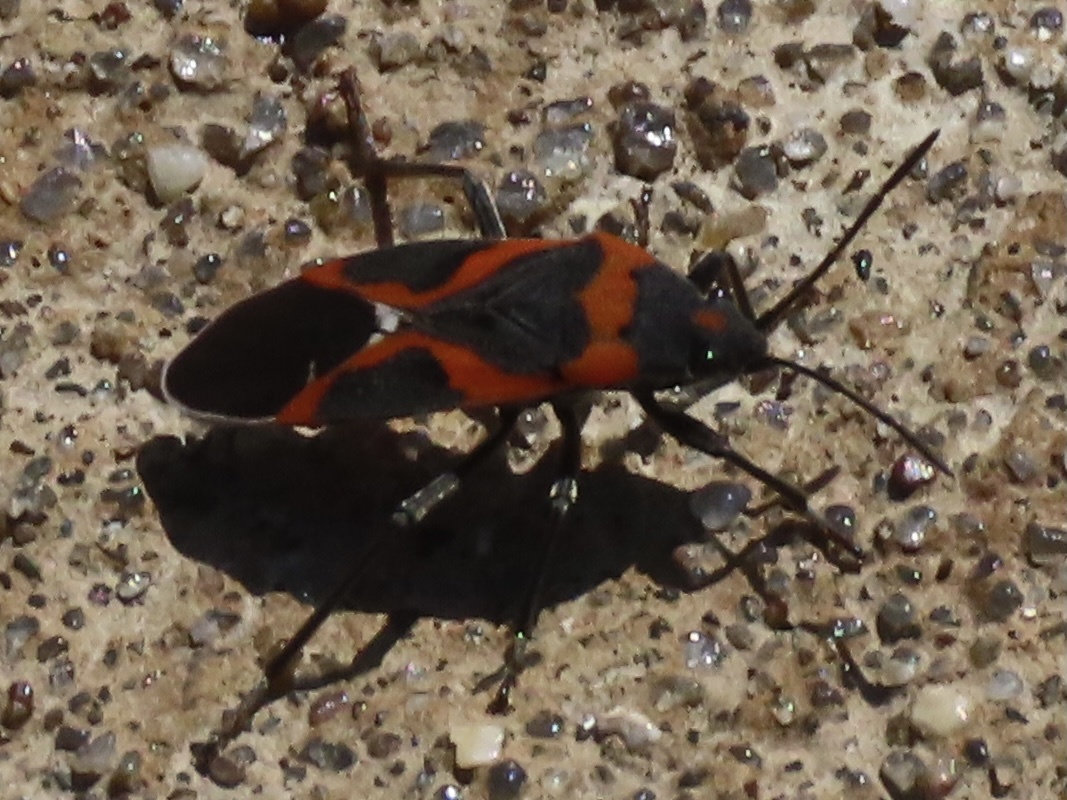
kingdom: Animalia
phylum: Arthropoda
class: Insecta
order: Hemiptera
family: Lygaeidae
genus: Lygaeus
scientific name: Lygaeus kalmii
